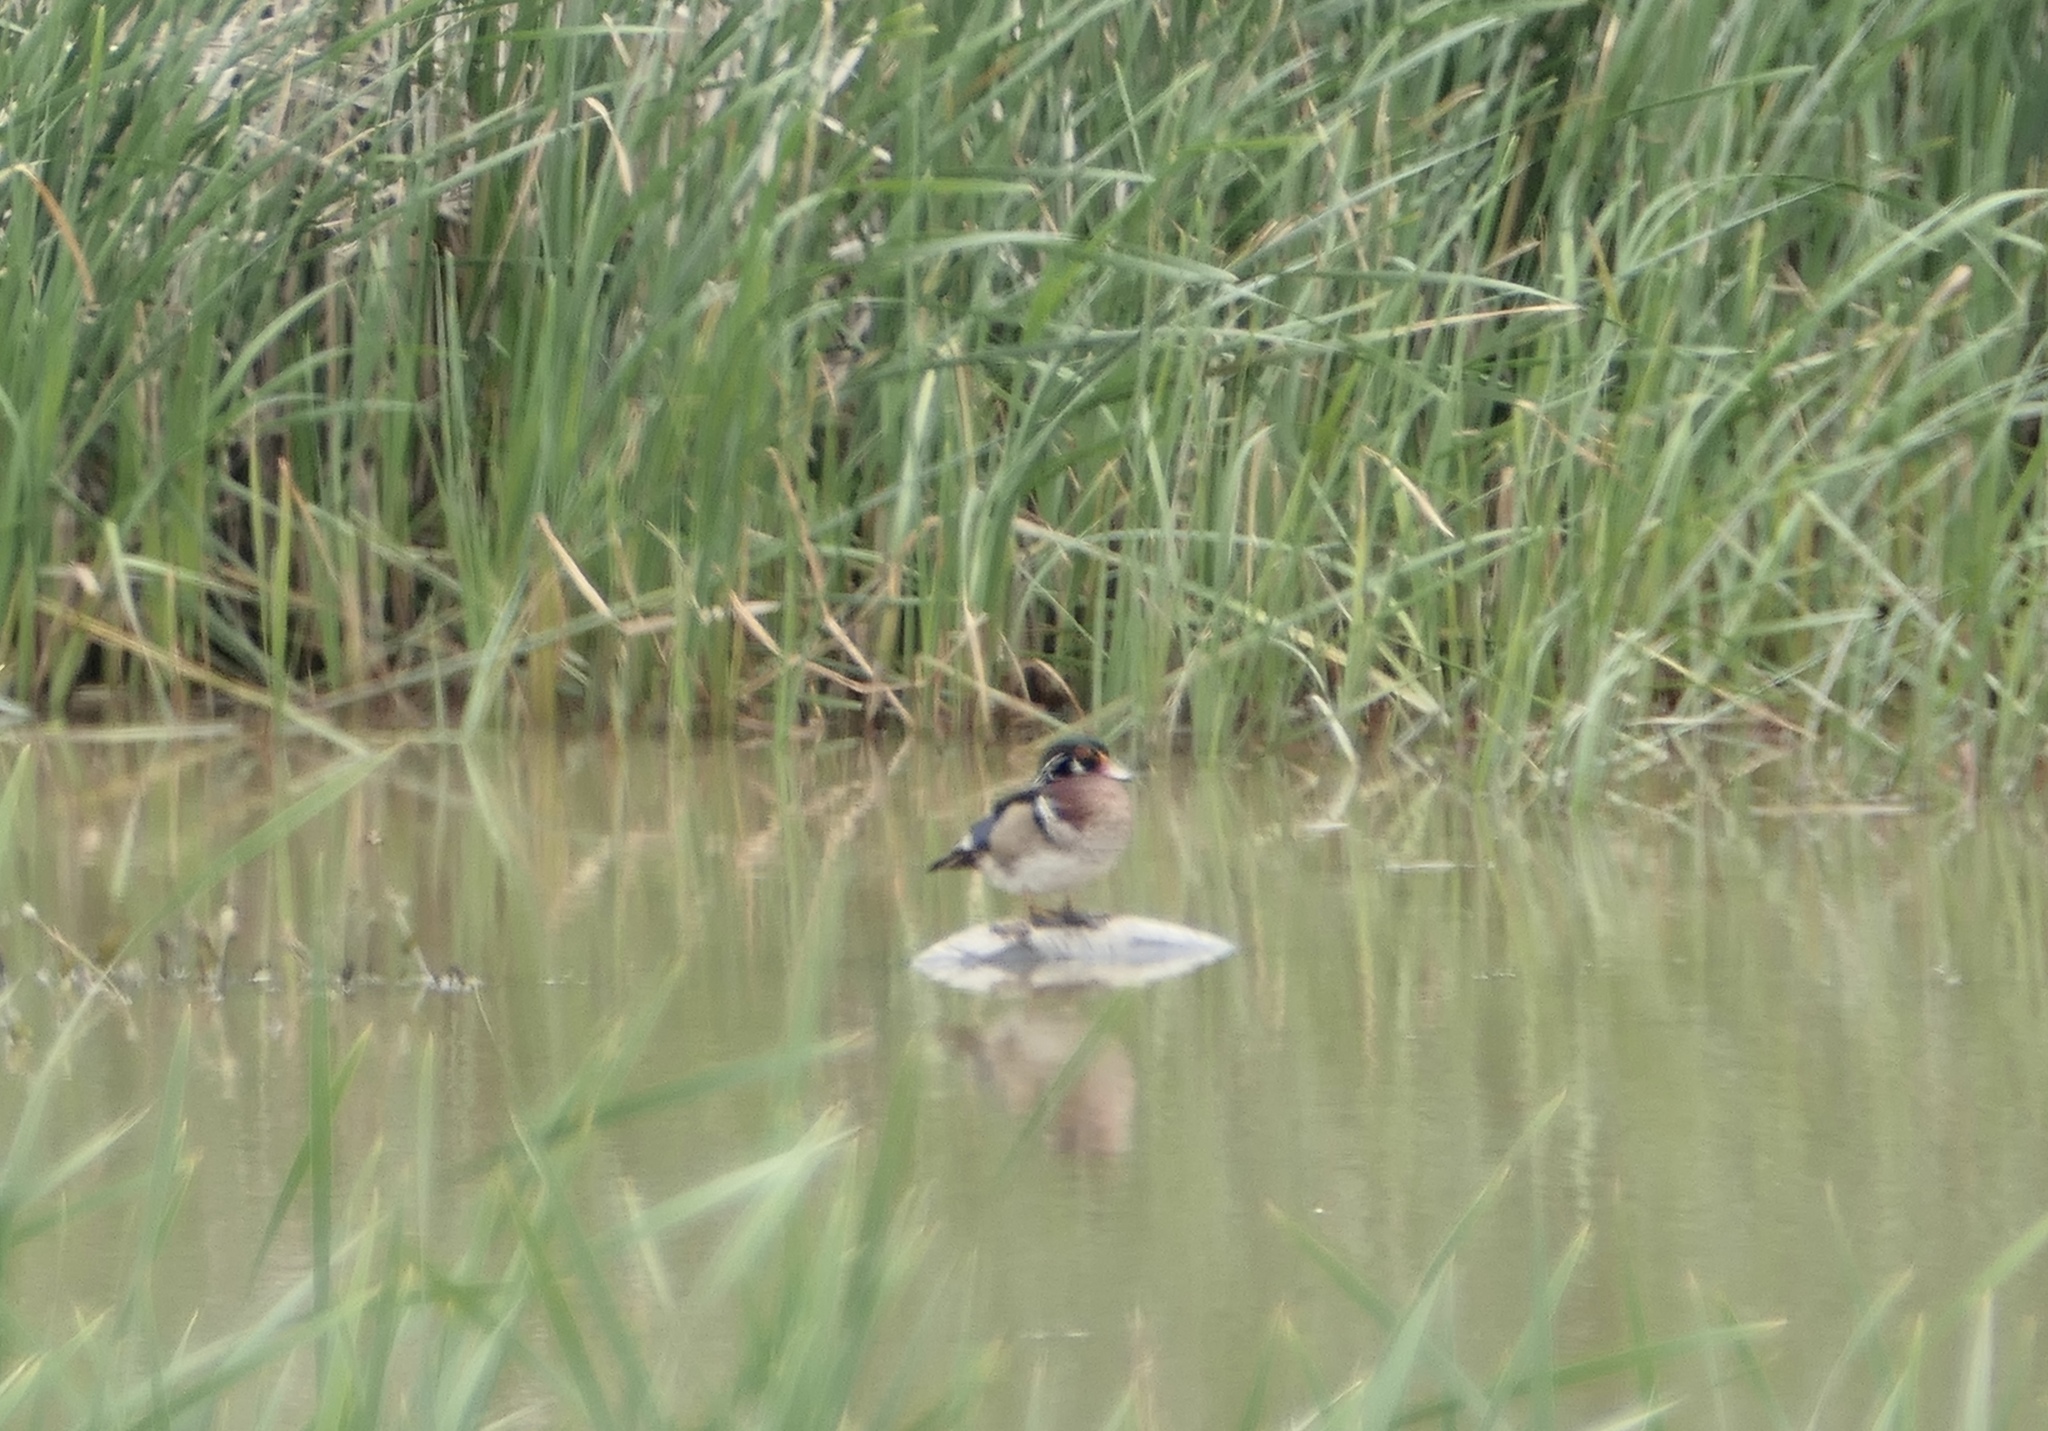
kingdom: Animalia
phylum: Chordata
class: Aves
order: Anseriformes
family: Anatidae
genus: Aix
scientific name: Aix sponsa
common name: Wood duck
